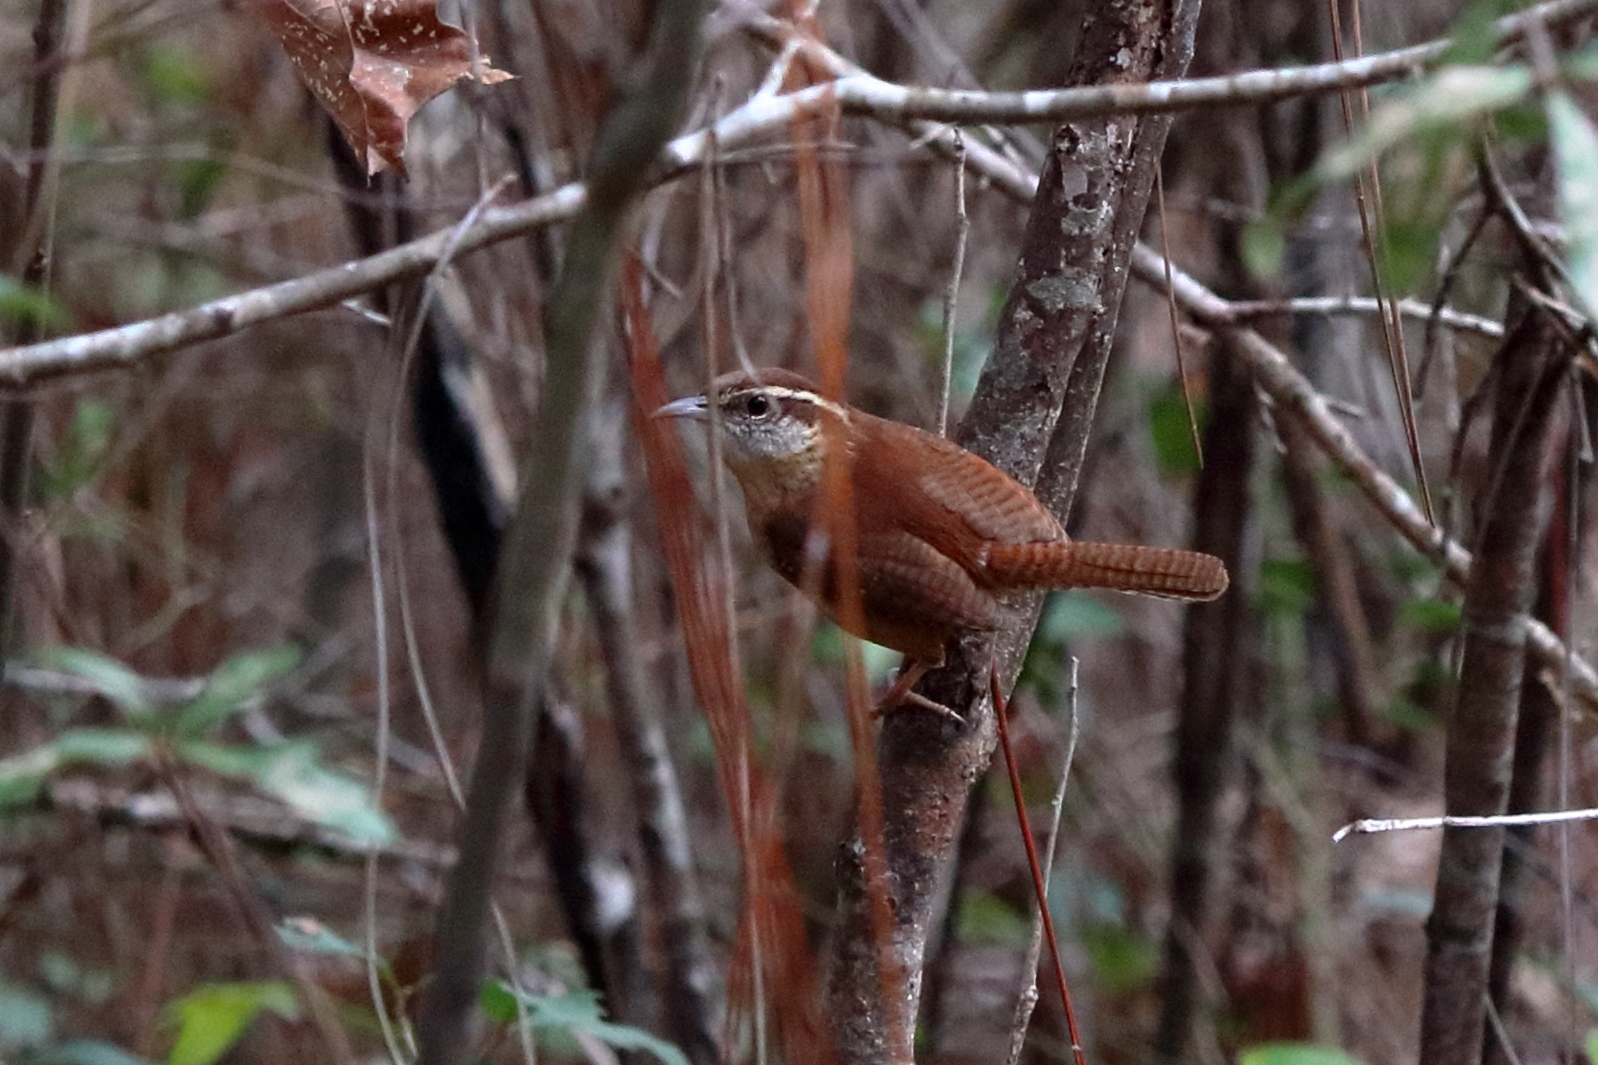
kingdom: Animalia
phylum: Chordata
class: Aves
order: Passeriformes
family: Troglodytidae
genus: Thryothorus
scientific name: Thryothorus ludovicianus
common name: Carolina wren
